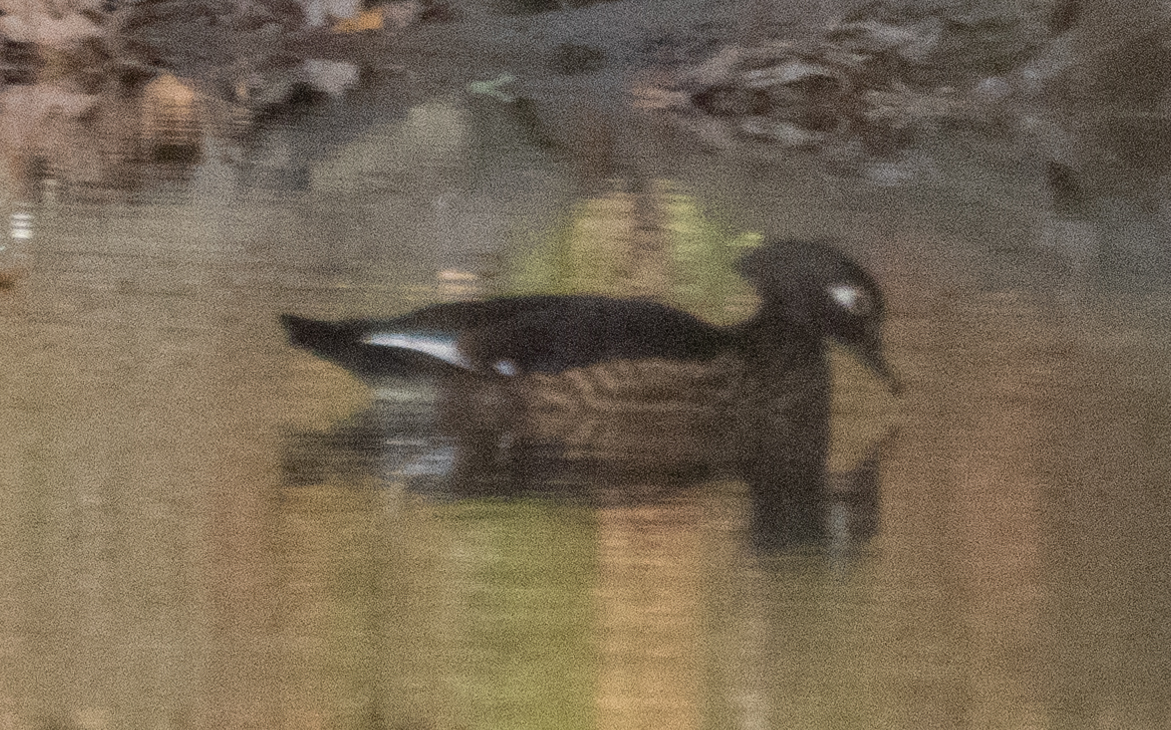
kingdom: Animalia
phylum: Chordata
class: Aves
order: Anseriformes
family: Anatidae
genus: Aix
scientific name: Aix sponsa
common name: Wood duck
